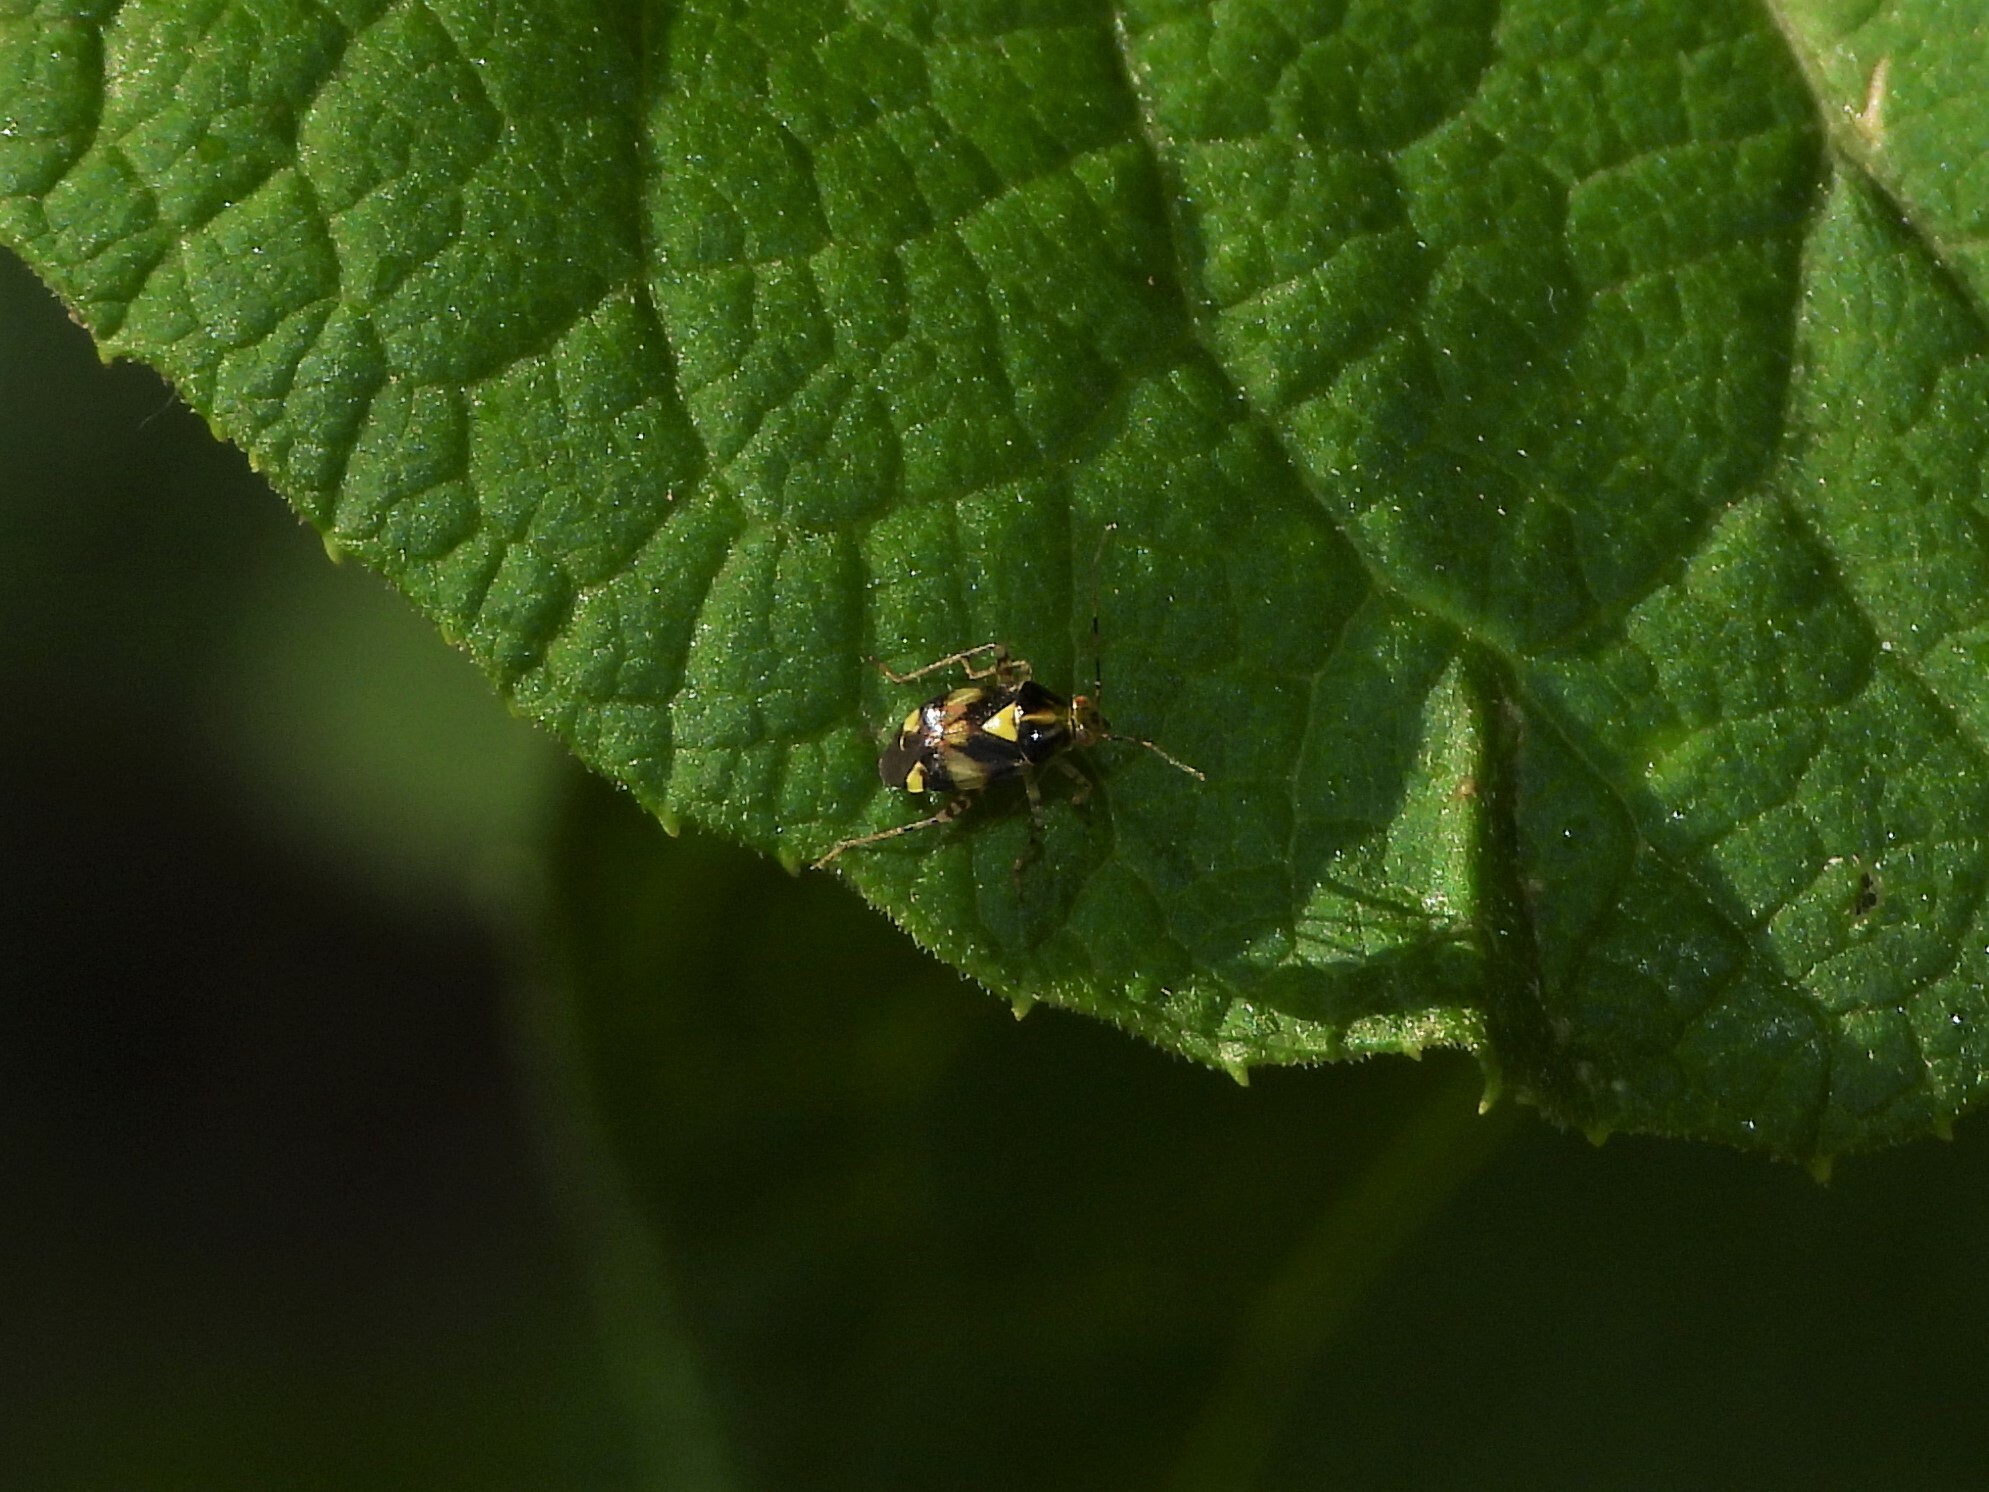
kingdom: Animalia
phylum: Arthropoda
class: Insecta
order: Hemiptera
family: Miridae
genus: Liocoris
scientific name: Liocoris tripustulatus
